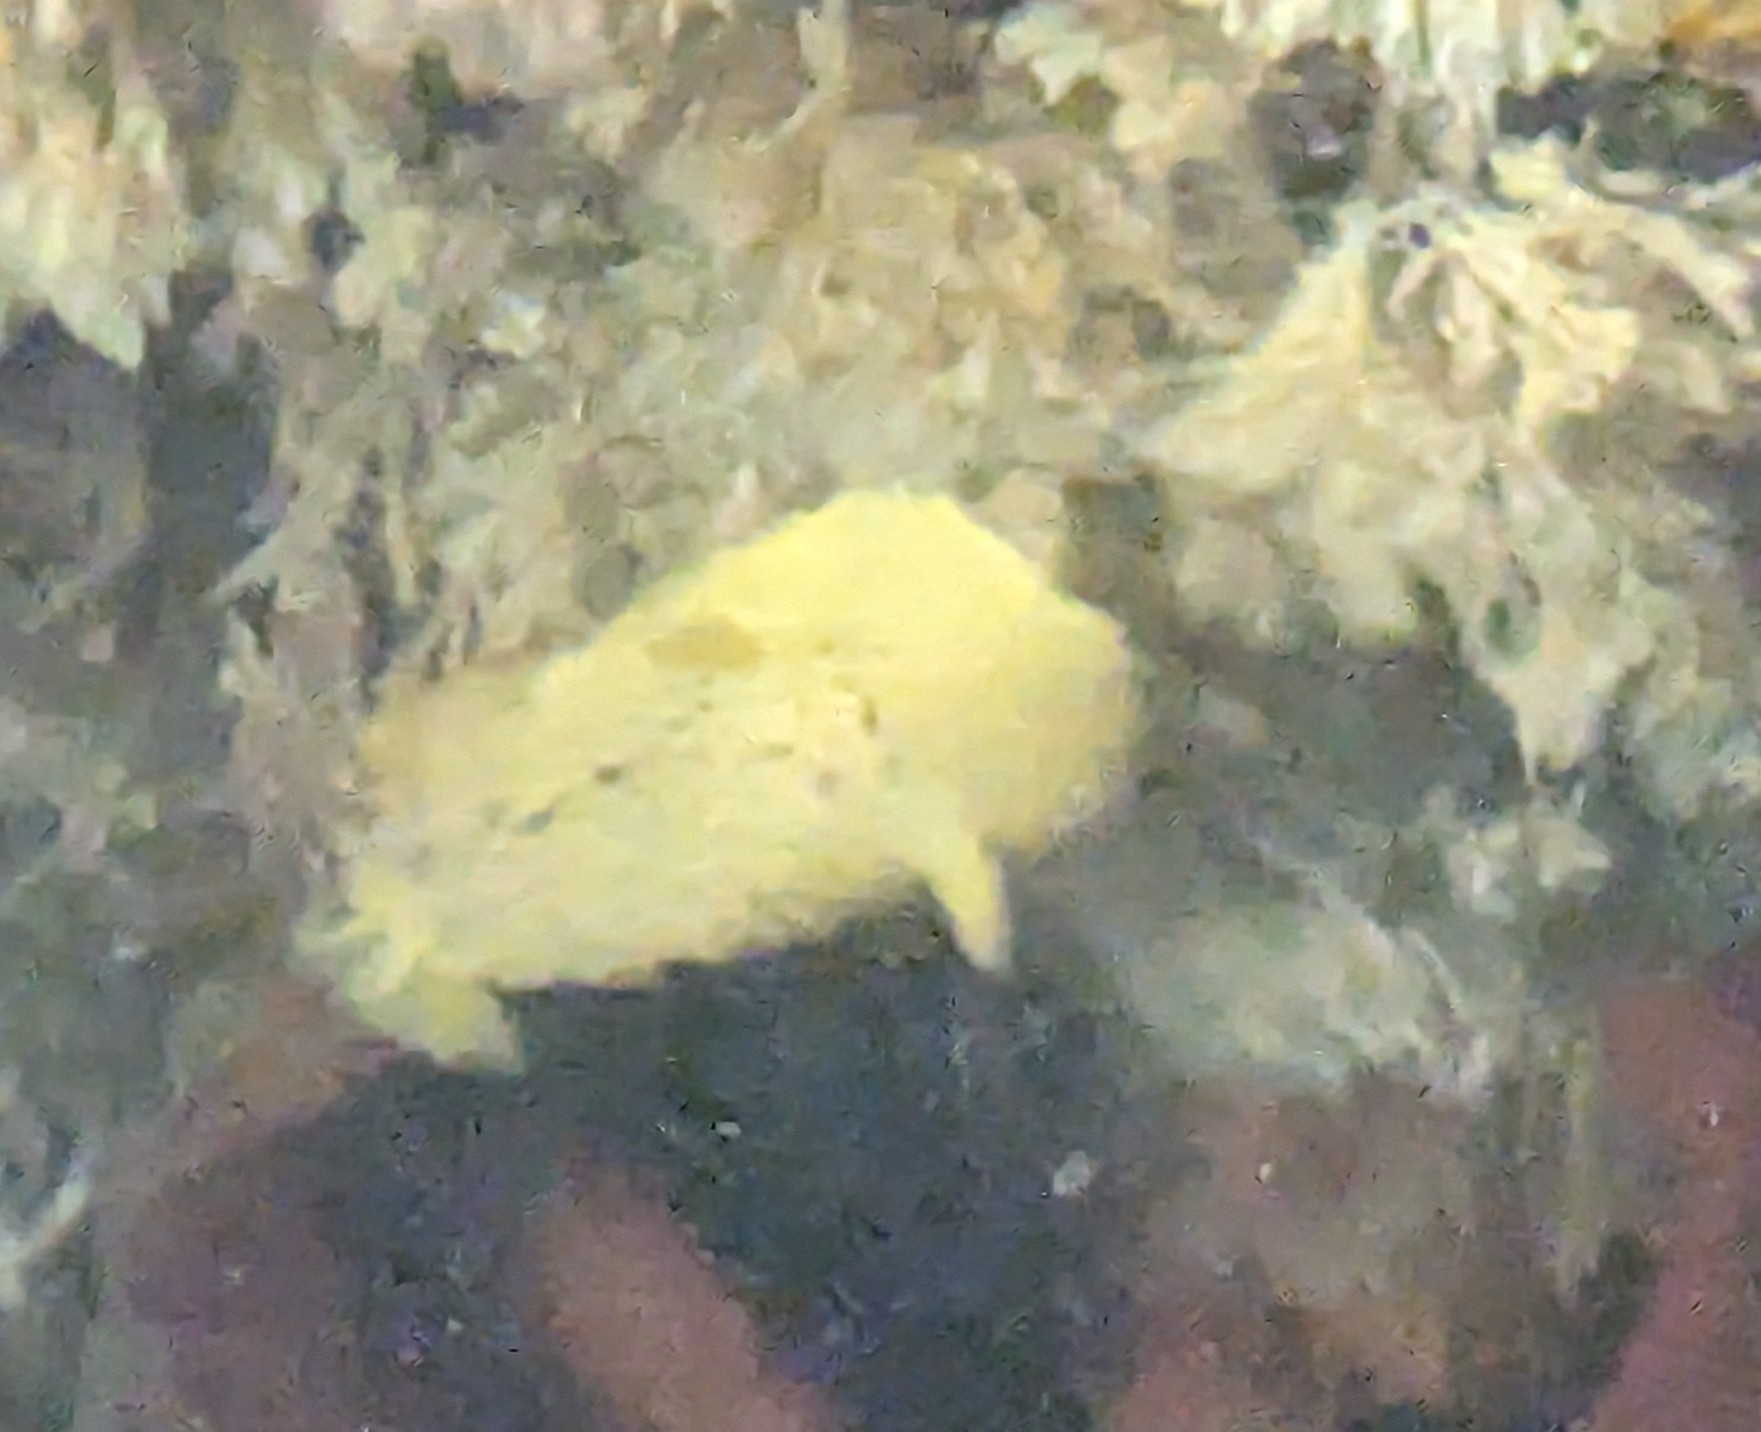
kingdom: Animalia
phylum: Mollusca
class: Gastropoda
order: Nudibranchia
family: Dorididae
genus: Doris
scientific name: Doris montereyensis
